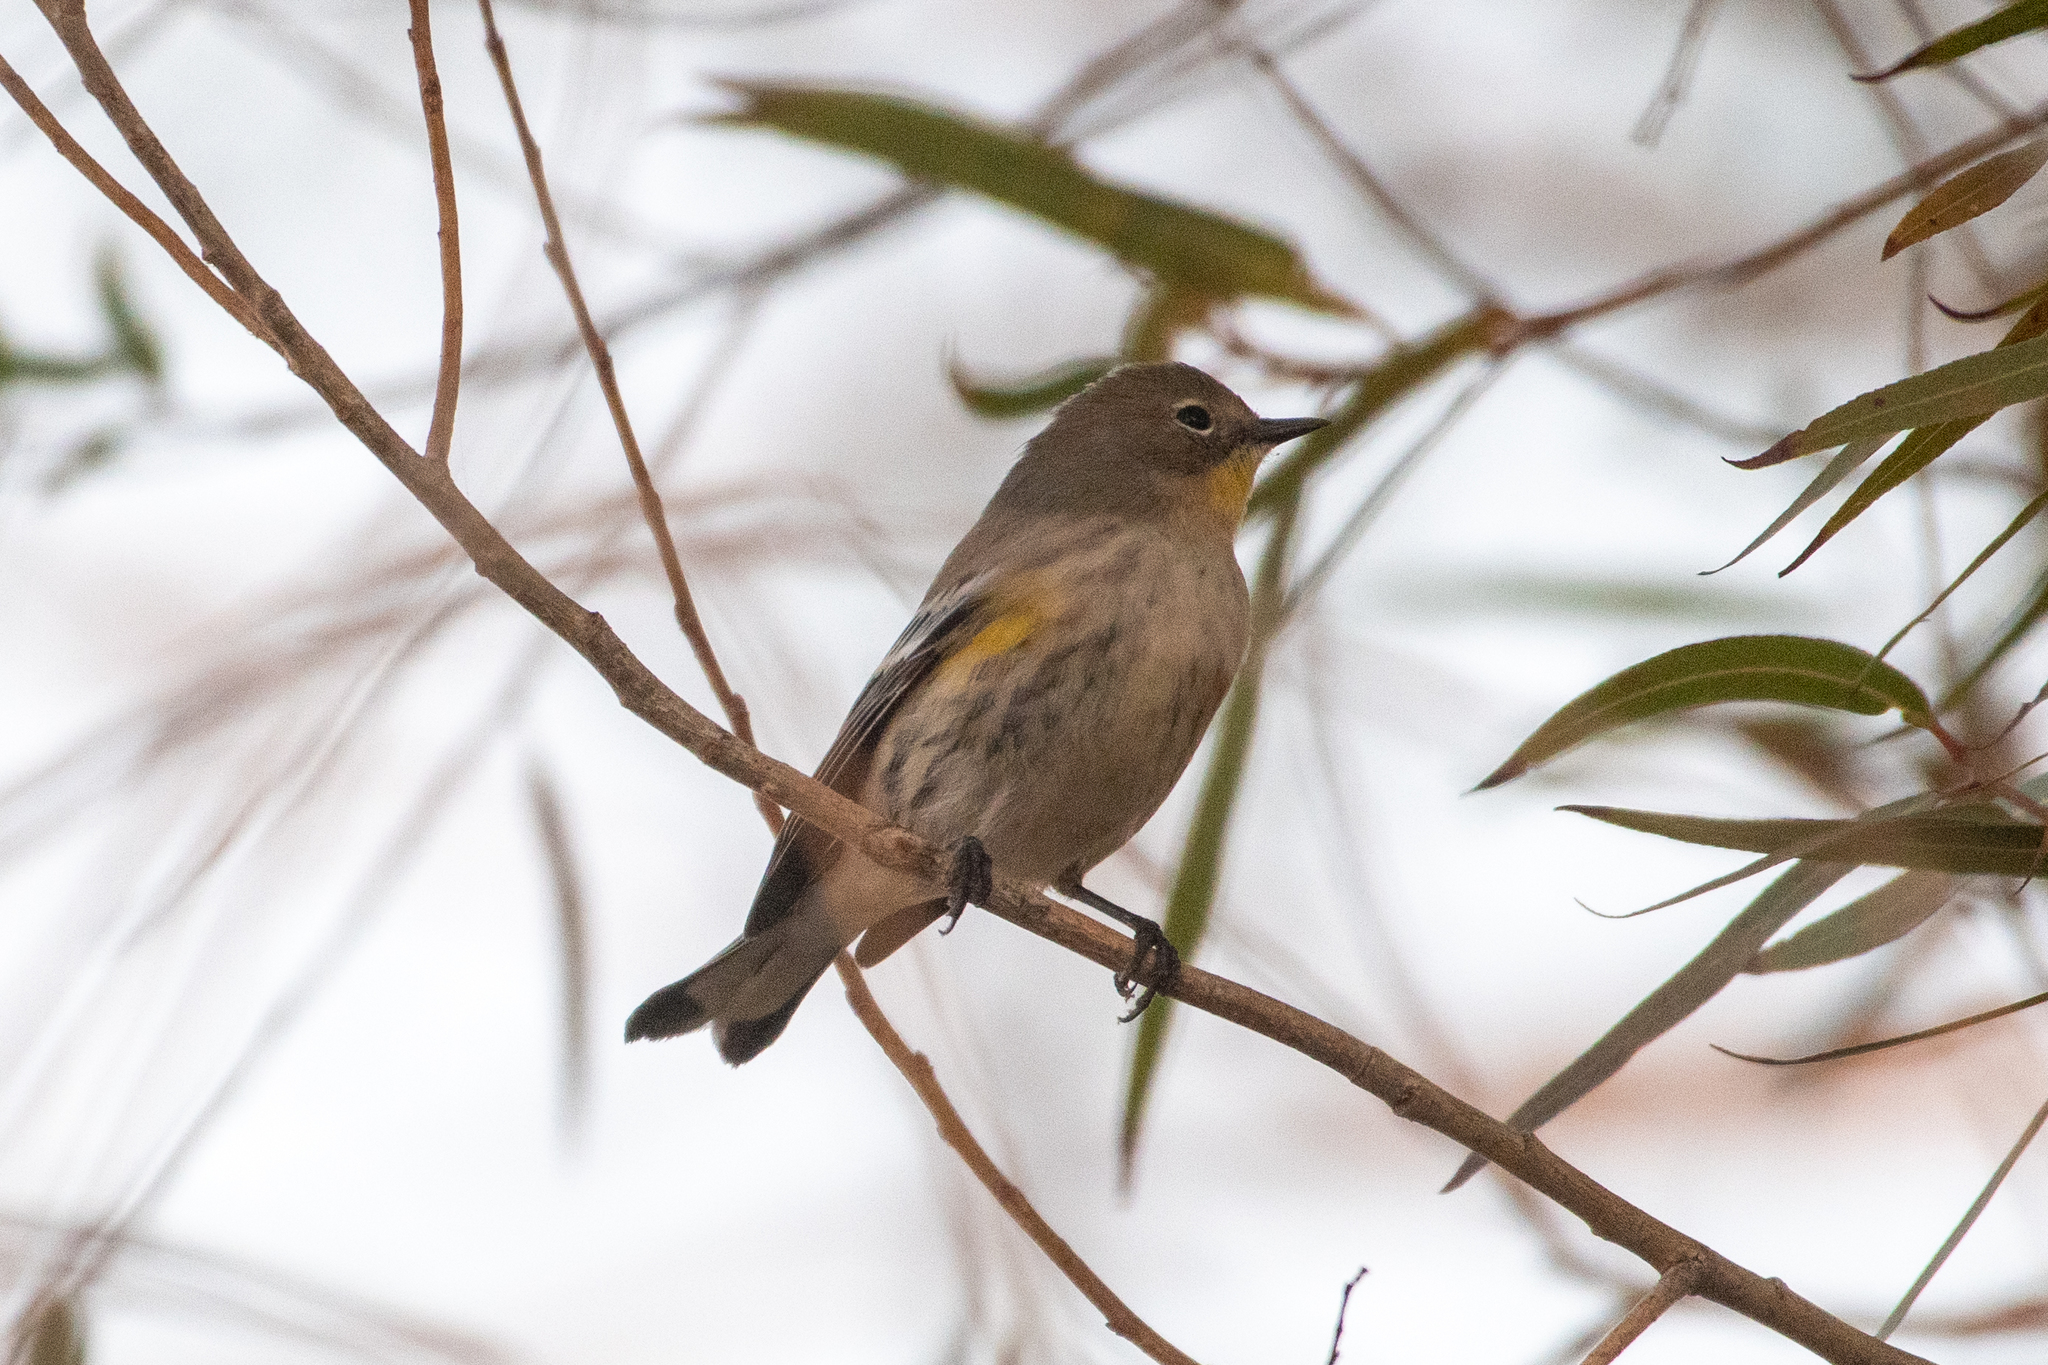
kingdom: Animalia
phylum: Chordata
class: Aves
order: Passeriformes
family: Parulidae
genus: Setophaga
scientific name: Setophaga coronata
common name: Myrtle warbler
